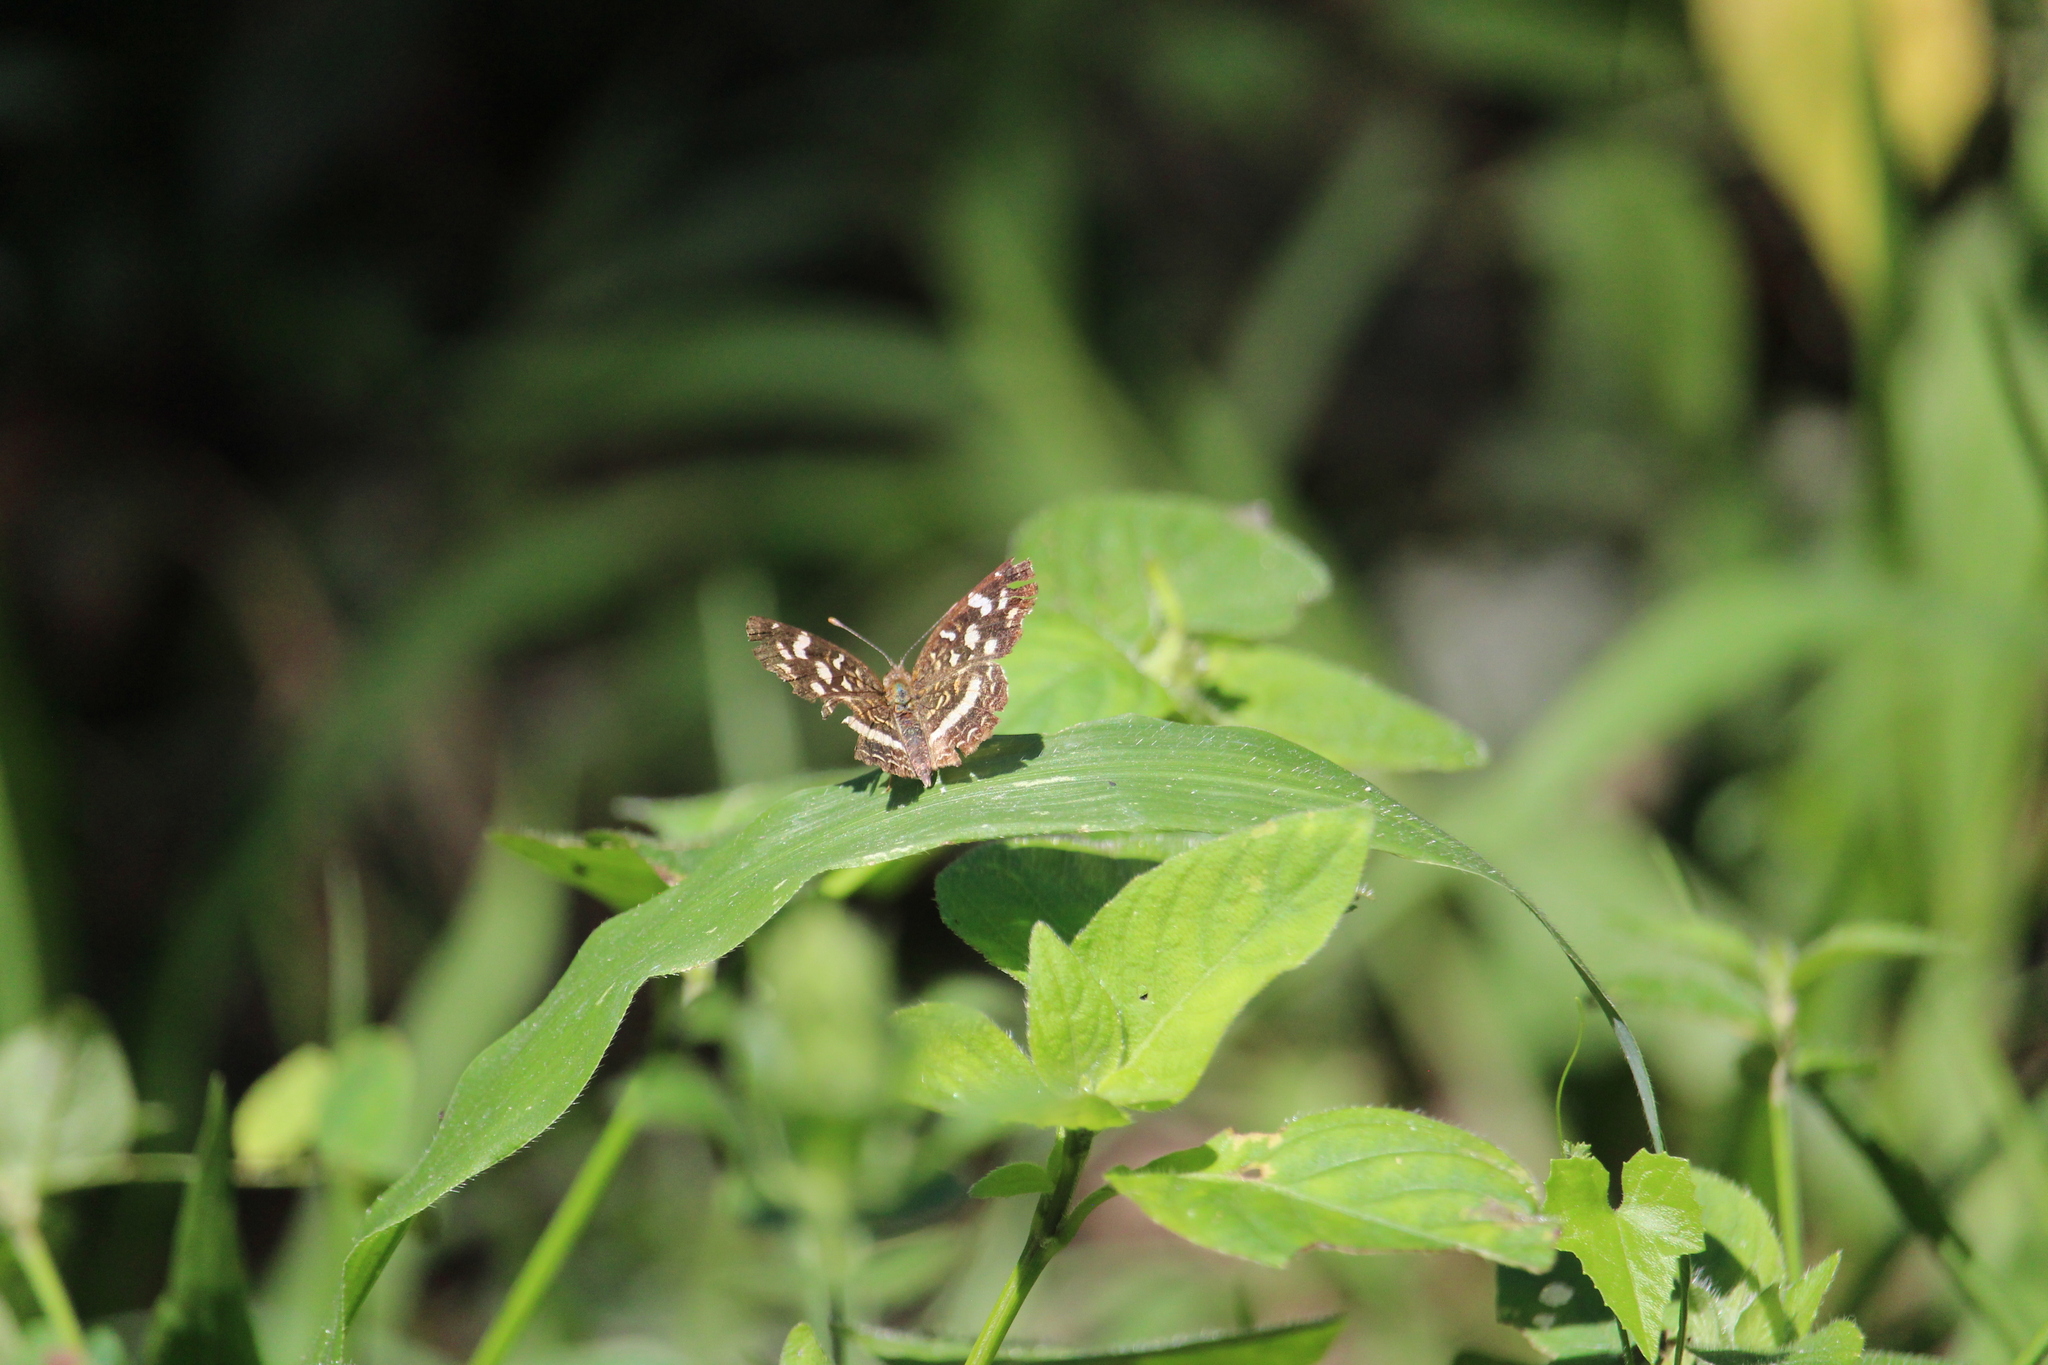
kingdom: Animalia
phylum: Arthropoda
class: Insecta
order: Lepidoptera
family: Nymphalidae
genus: Anthanassa
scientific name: Anthanassa tulcis
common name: Pale-banded crescent
